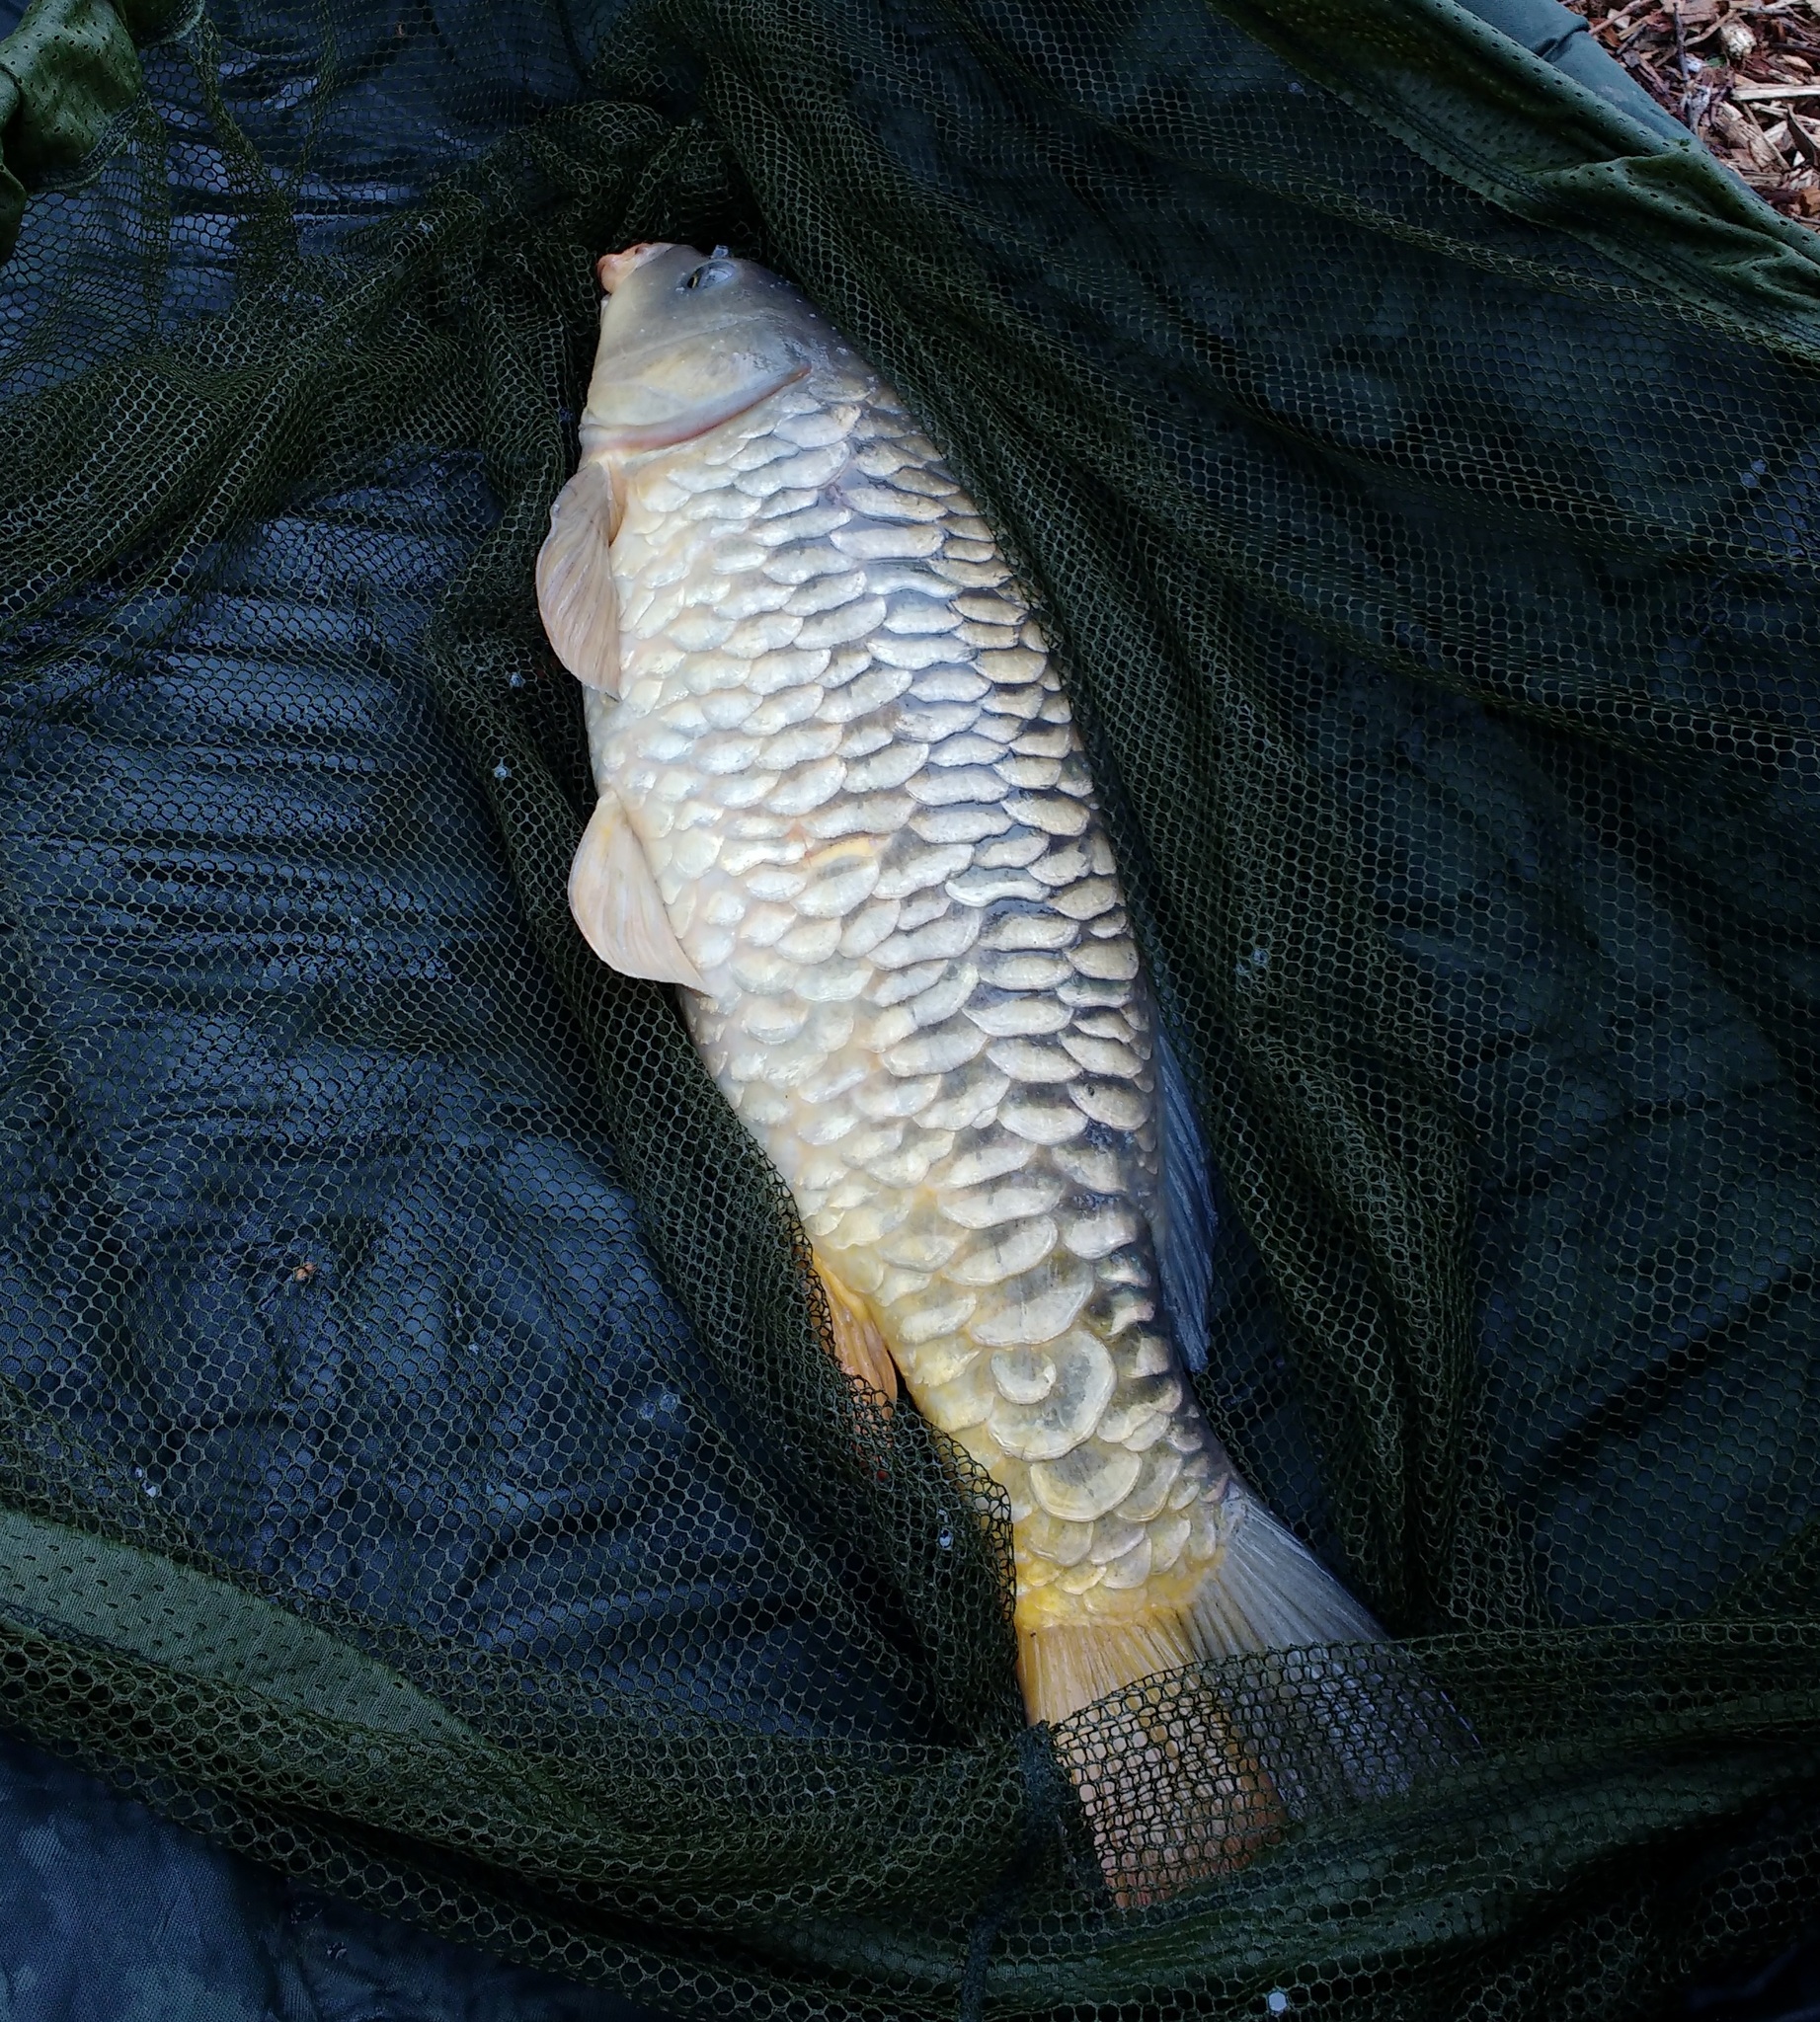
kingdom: Animalia
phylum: Chordata
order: Cypriniformes
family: Cyprinidae
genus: Cyprinus
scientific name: Cyprinus carpio
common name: Common carp
